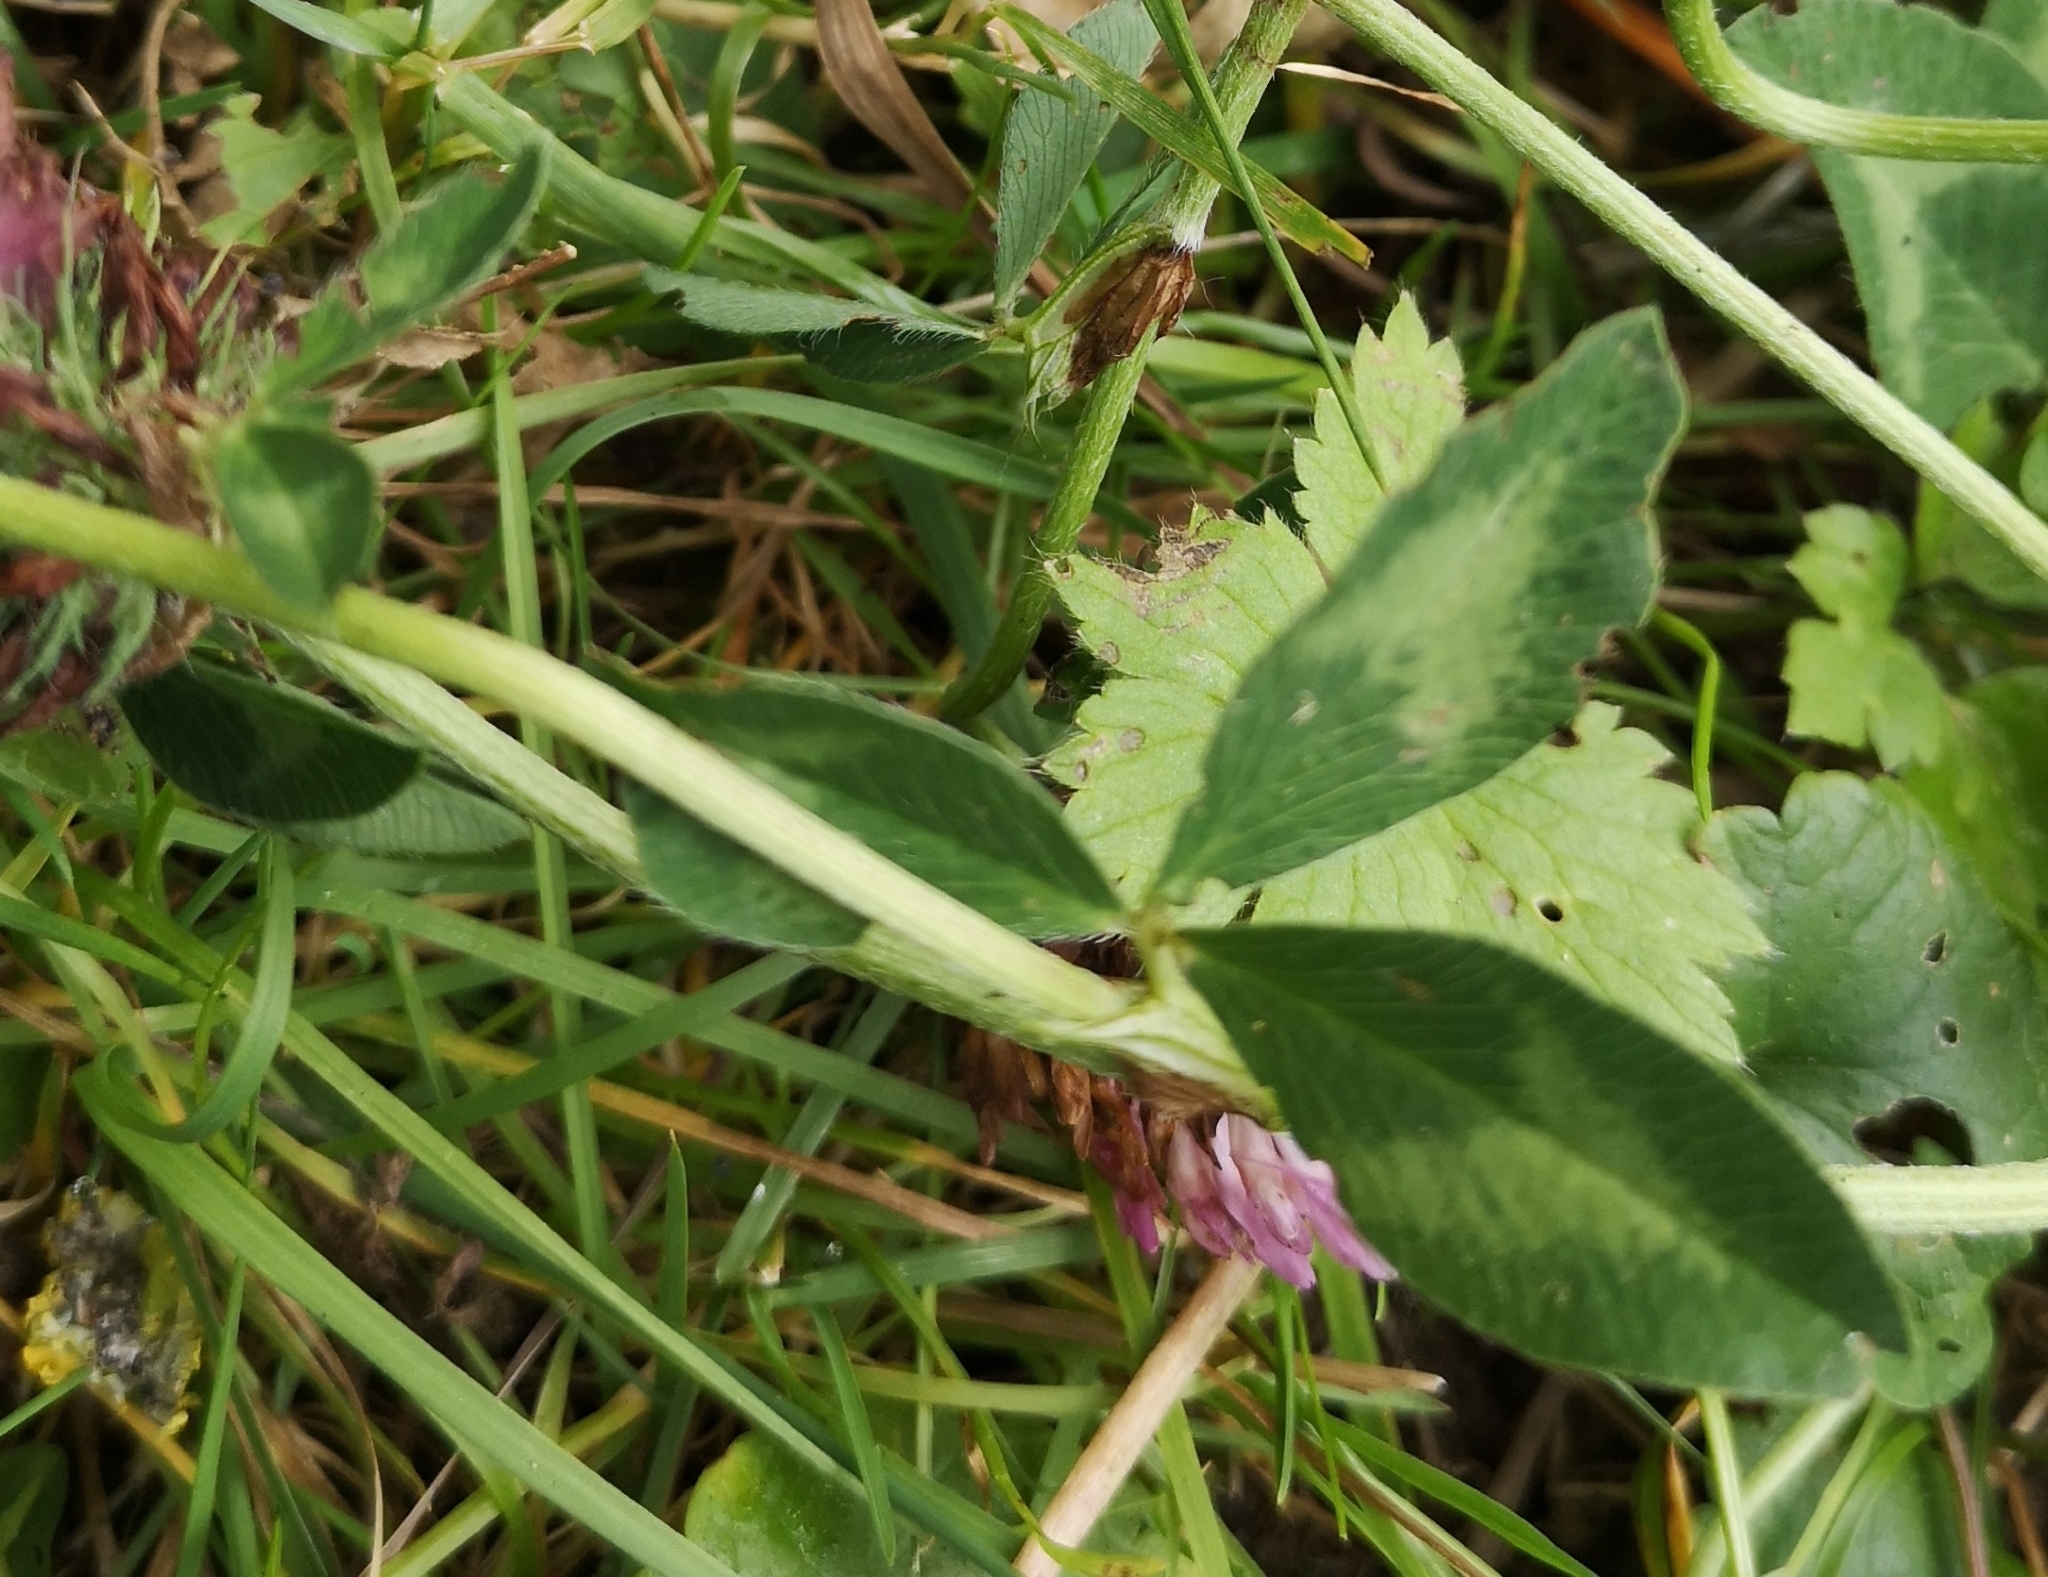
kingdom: Plantae
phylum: Tracheophyta
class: Magnoliopsida
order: Fabales
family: Fabaceae
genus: Trifolium
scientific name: Trifolium pratense
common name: Red clover
